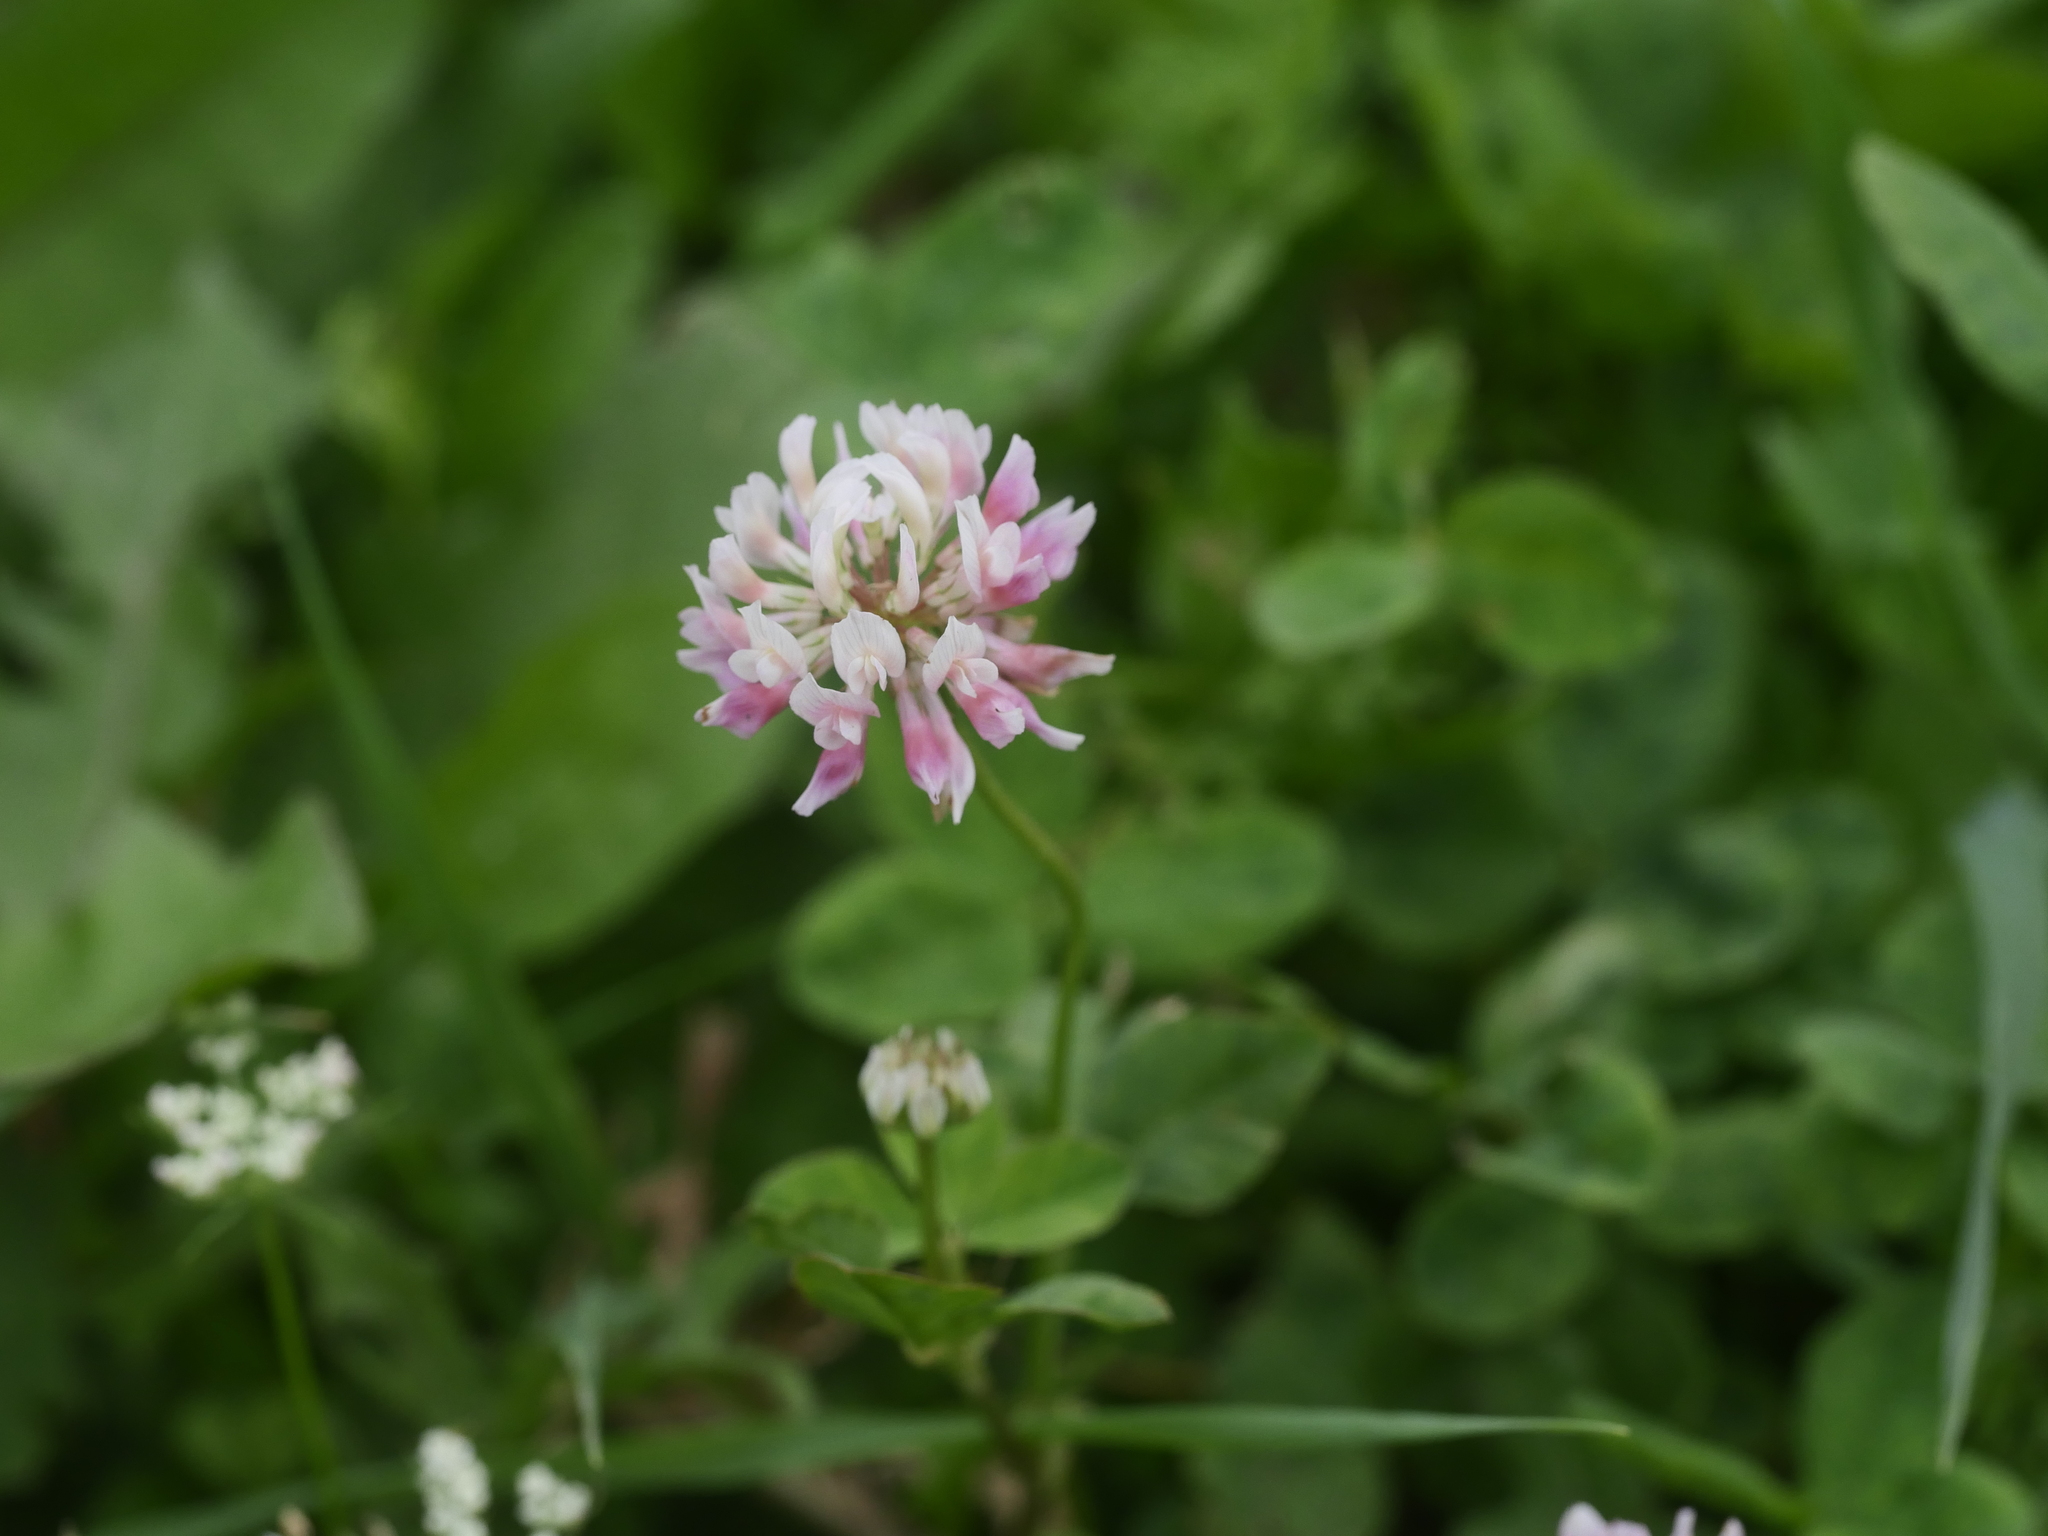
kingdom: Plantae
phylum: Tracheophyta
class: Magnoliopsida
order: Fabales
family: Fabaceae
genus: Trifolium
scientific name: Trifolium hybridum
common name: Alsike clover
